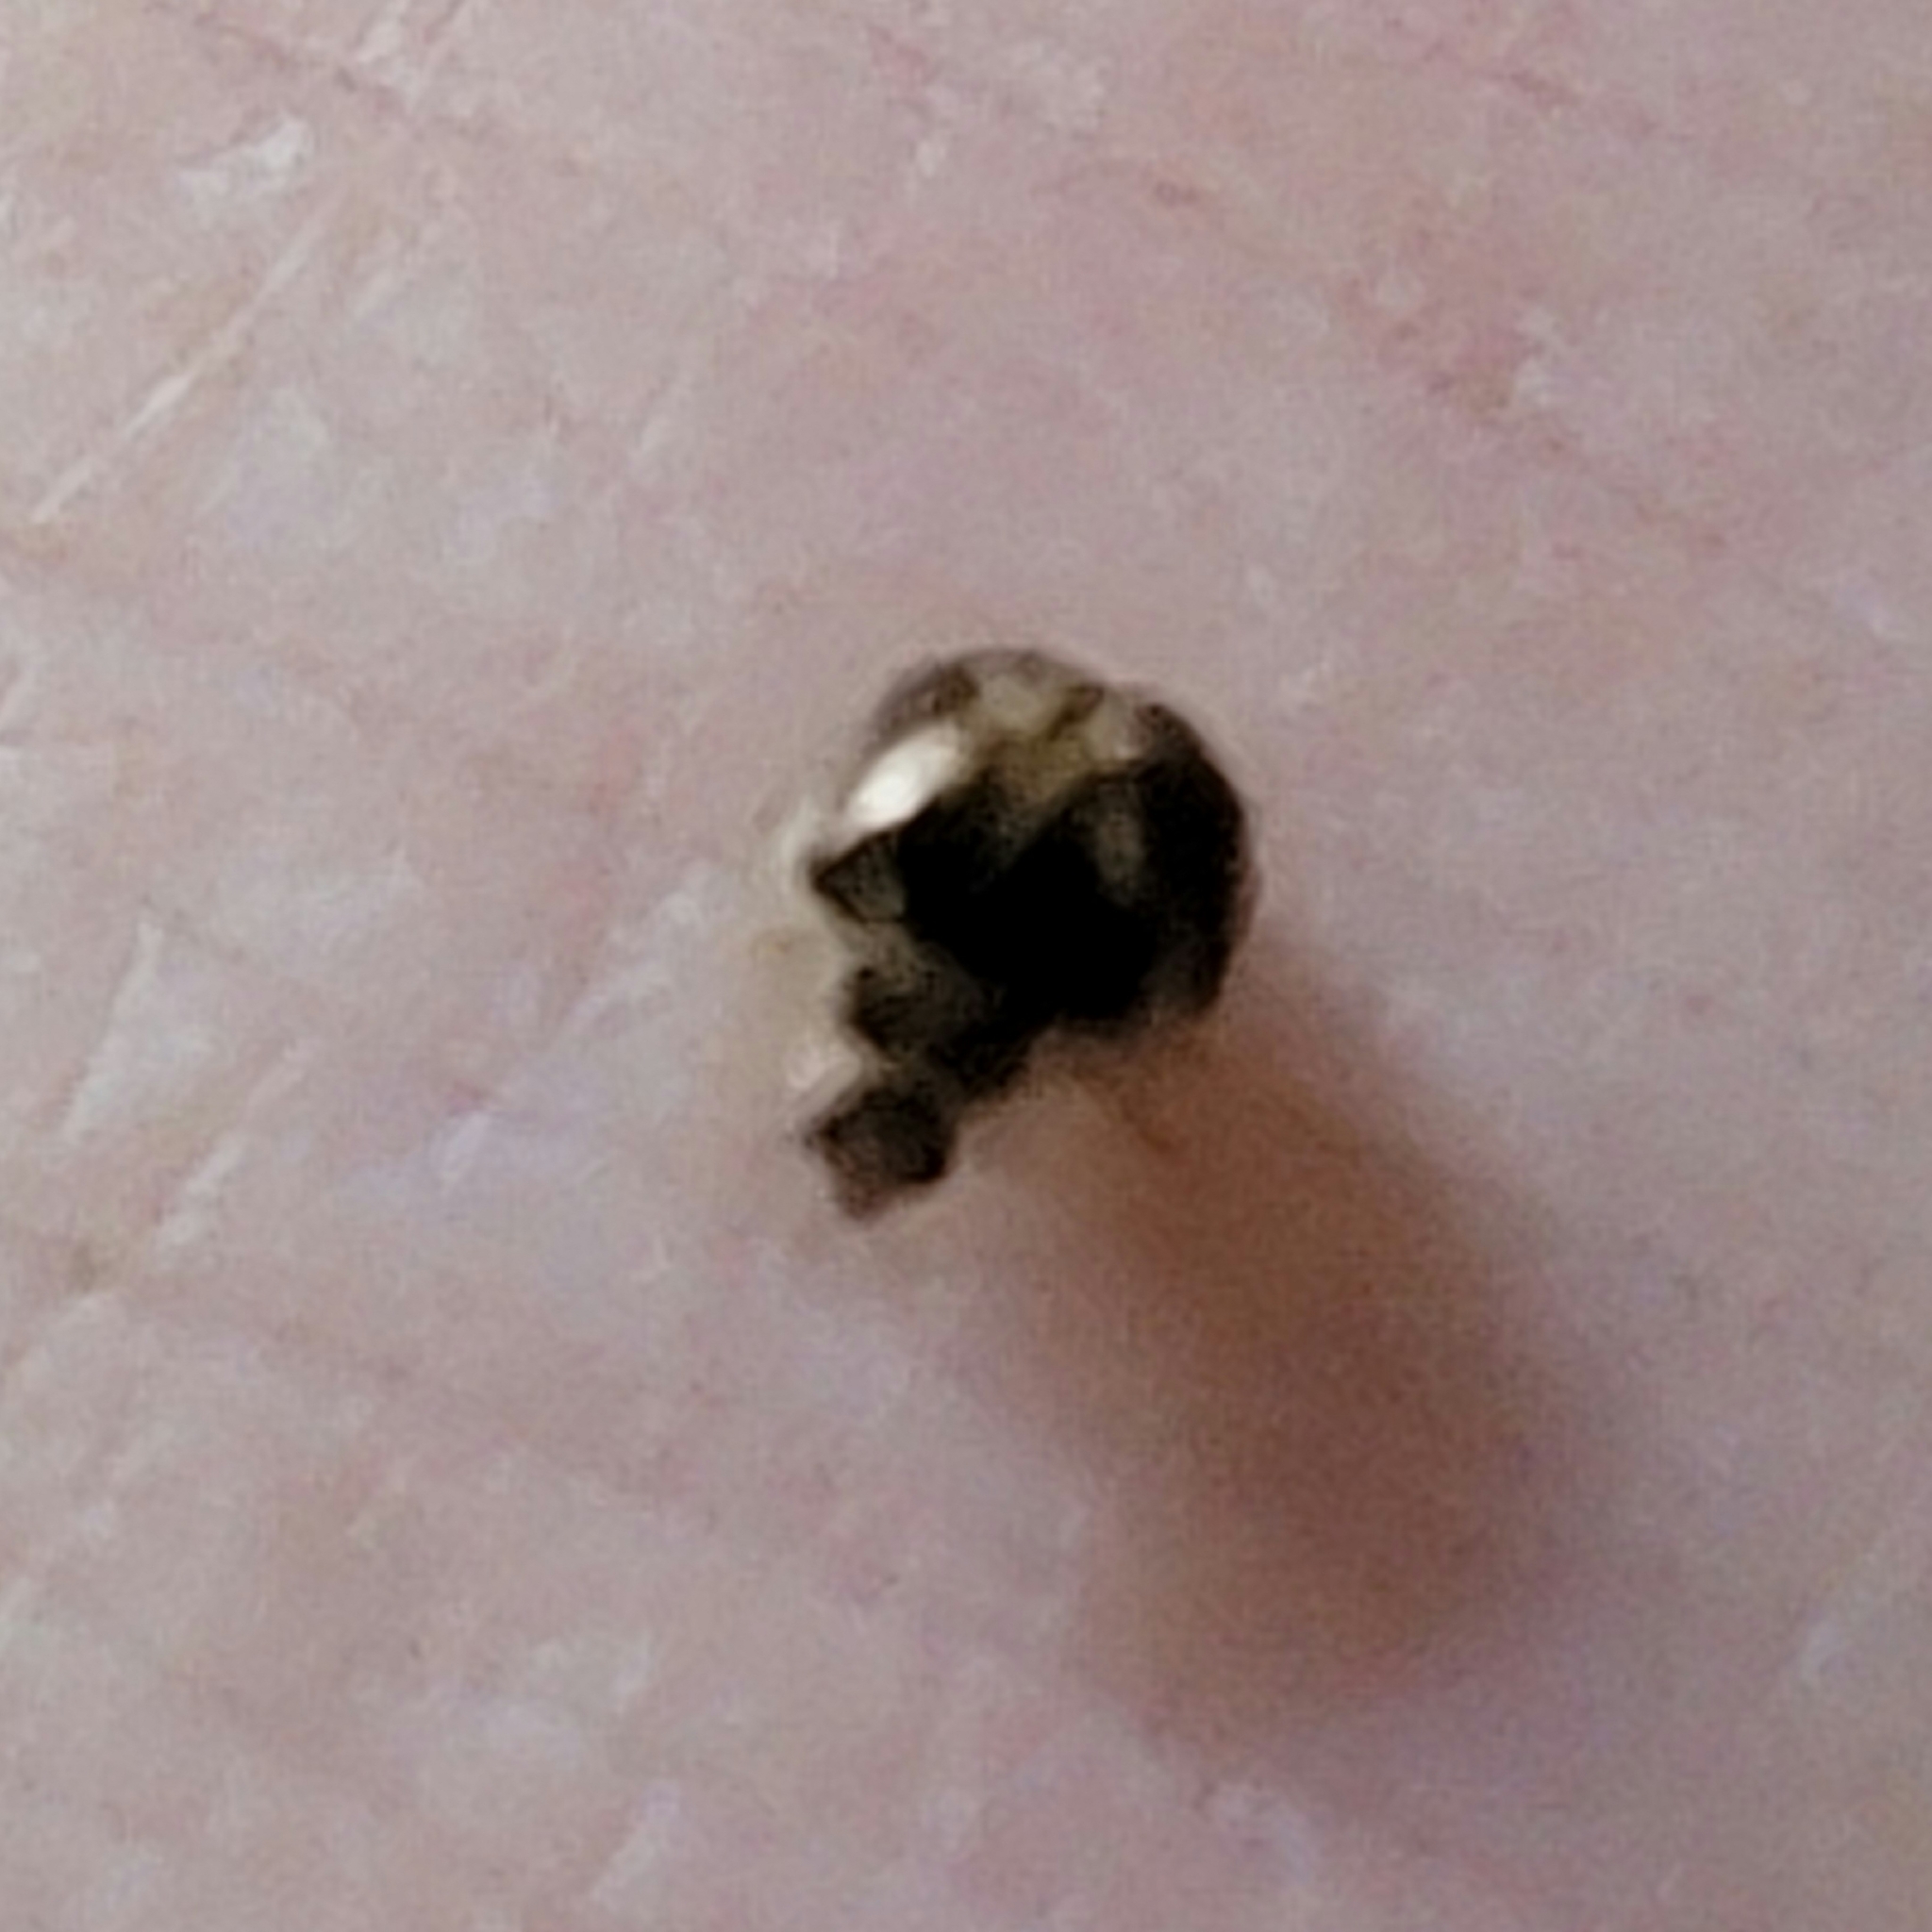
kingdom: Animalia
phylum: Arthropoda
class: Insecta
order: Coleoptera
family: Coccinellidae
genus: Psyllobora
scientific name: Psyllobora vigintimaculata
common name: Ladybird beetle
